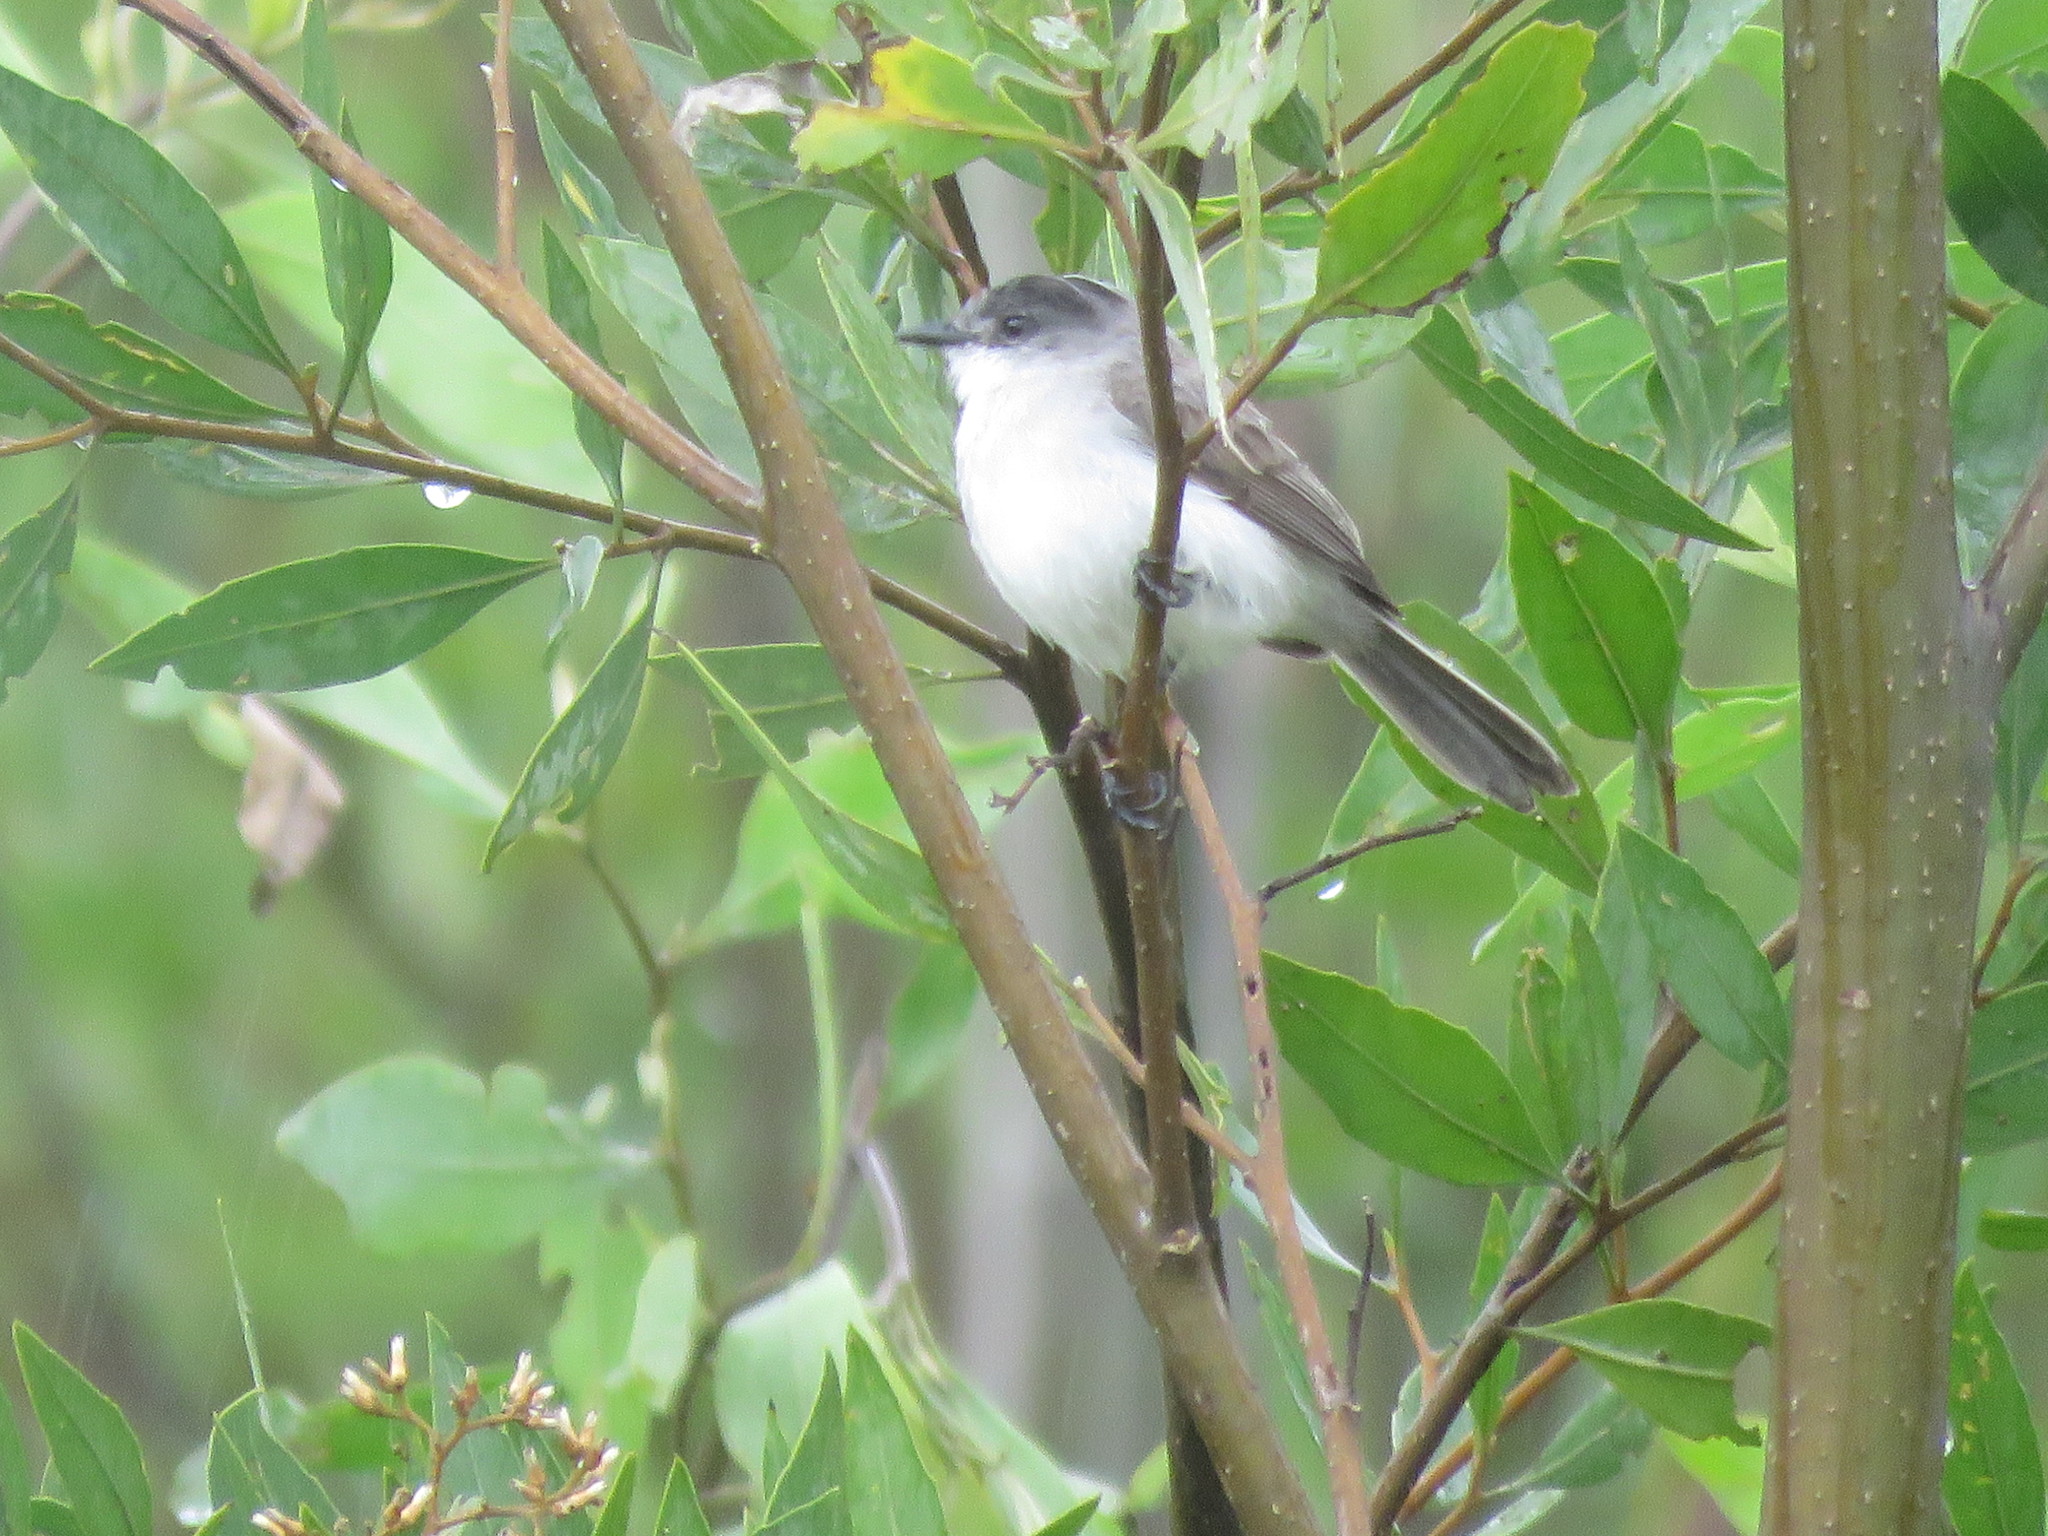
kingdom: Animalia
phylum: Chordata
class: Aves
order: Passeriformes
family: Tyrannidae
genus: Serpophaga
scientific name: Serpophaga hypoleuca
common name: River tyrannulet
